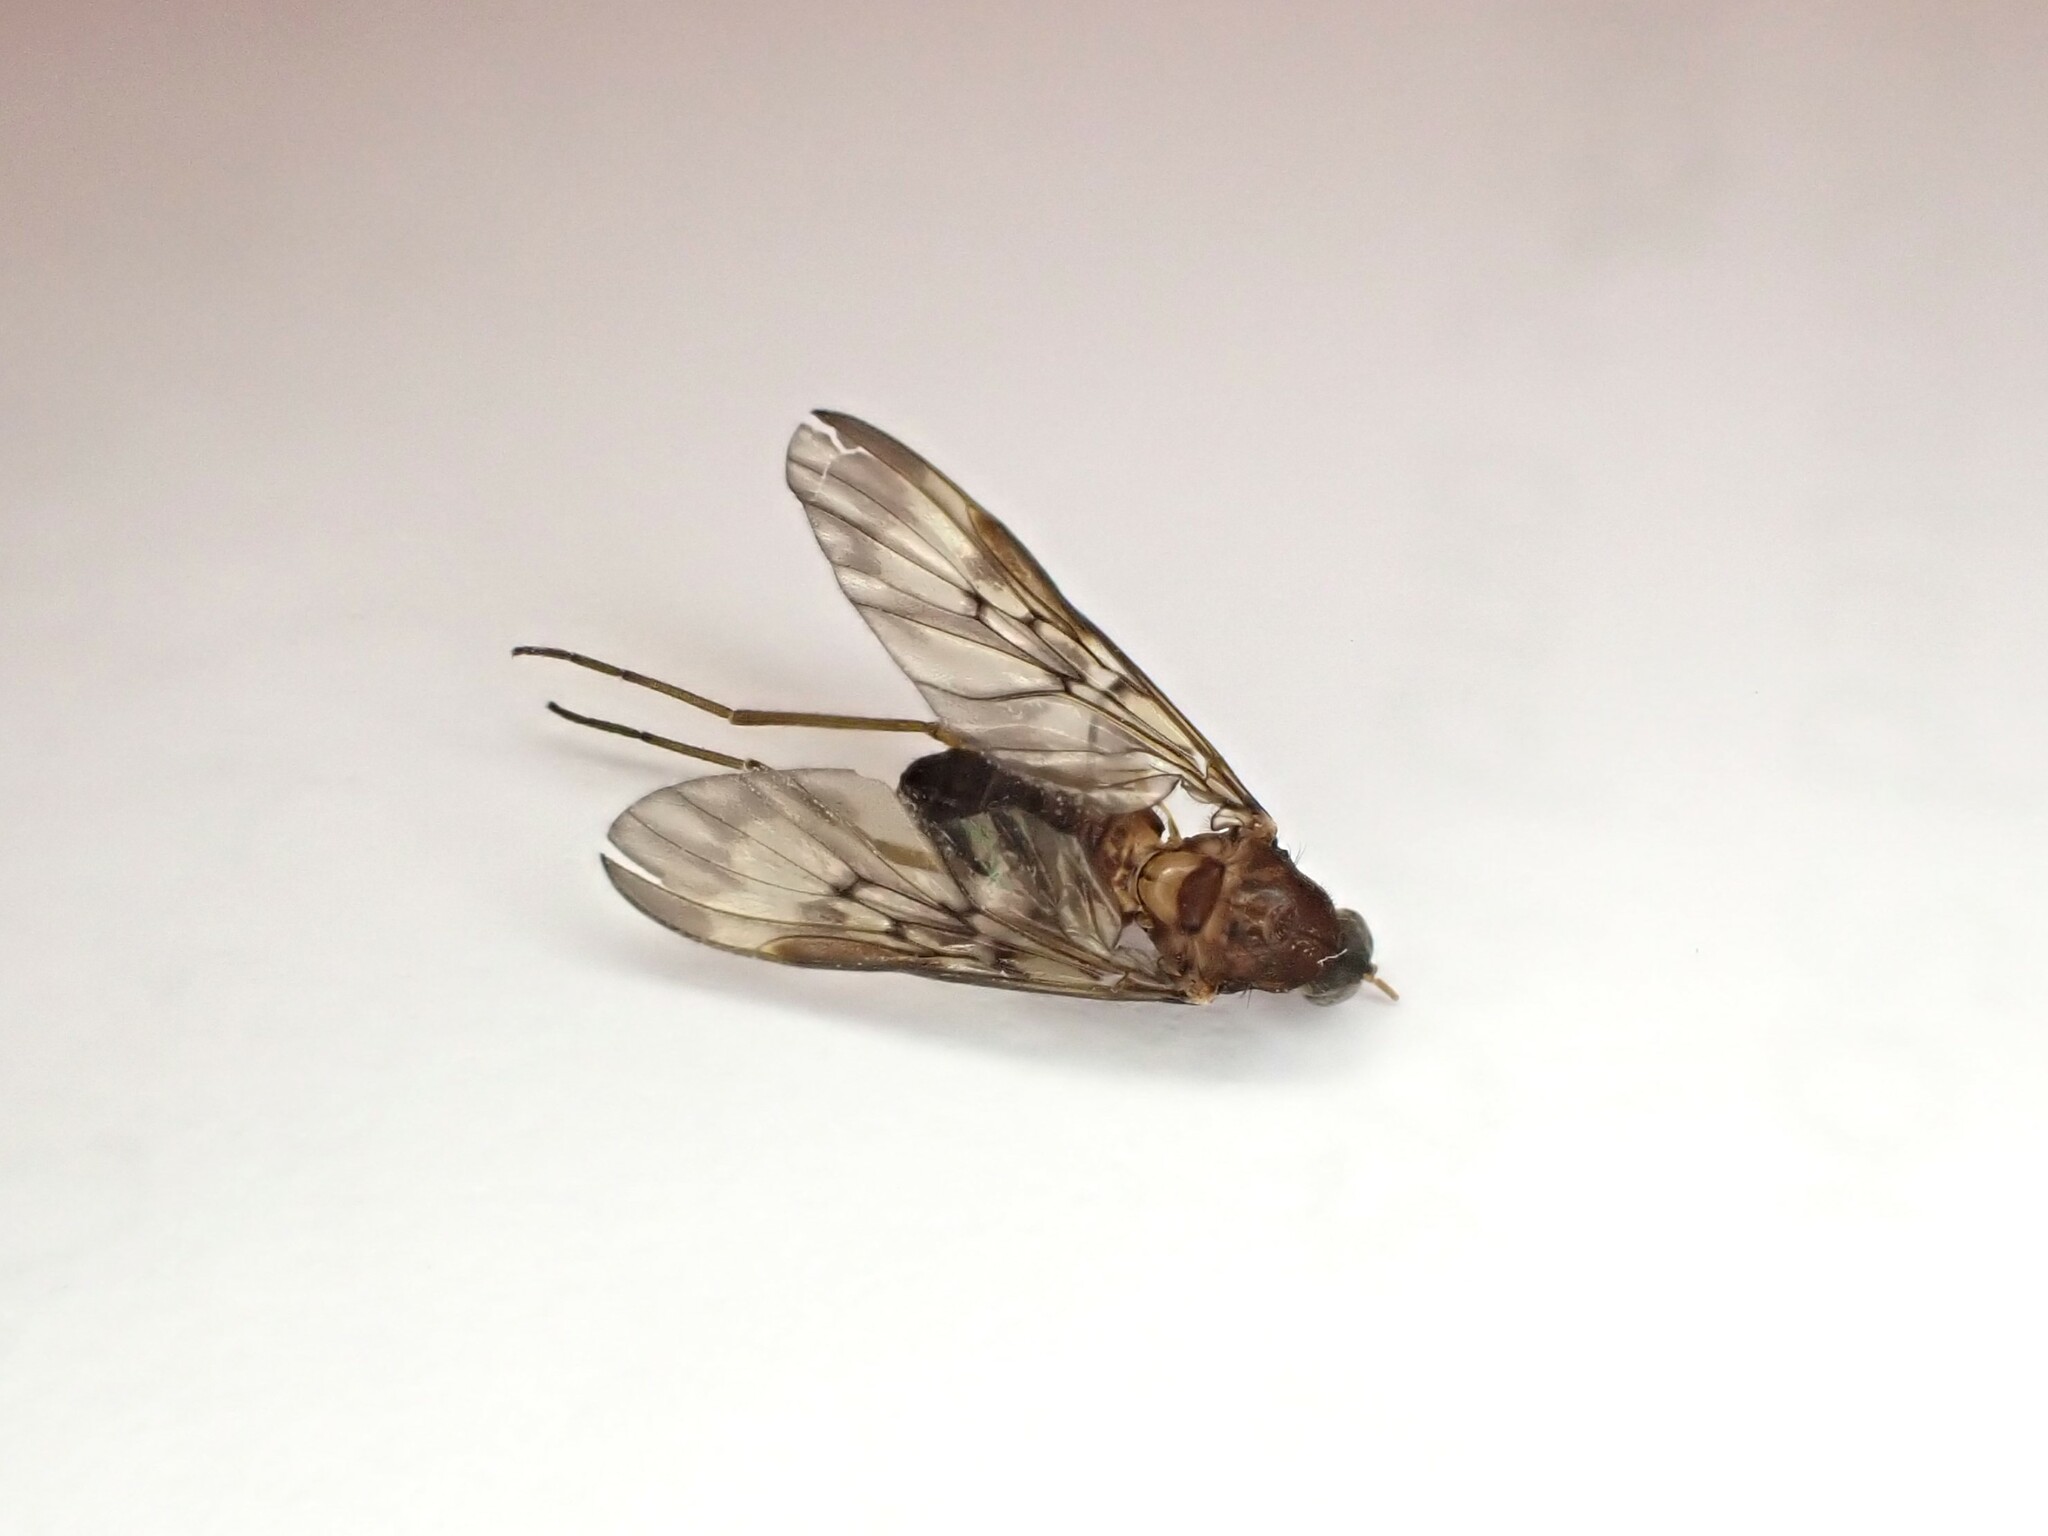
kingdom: Animalia
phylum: Arthropoda
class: Insecta
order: Diptera
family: Anisopodidae
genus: Sylvicola
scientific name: Sylvicola neozelandicus
